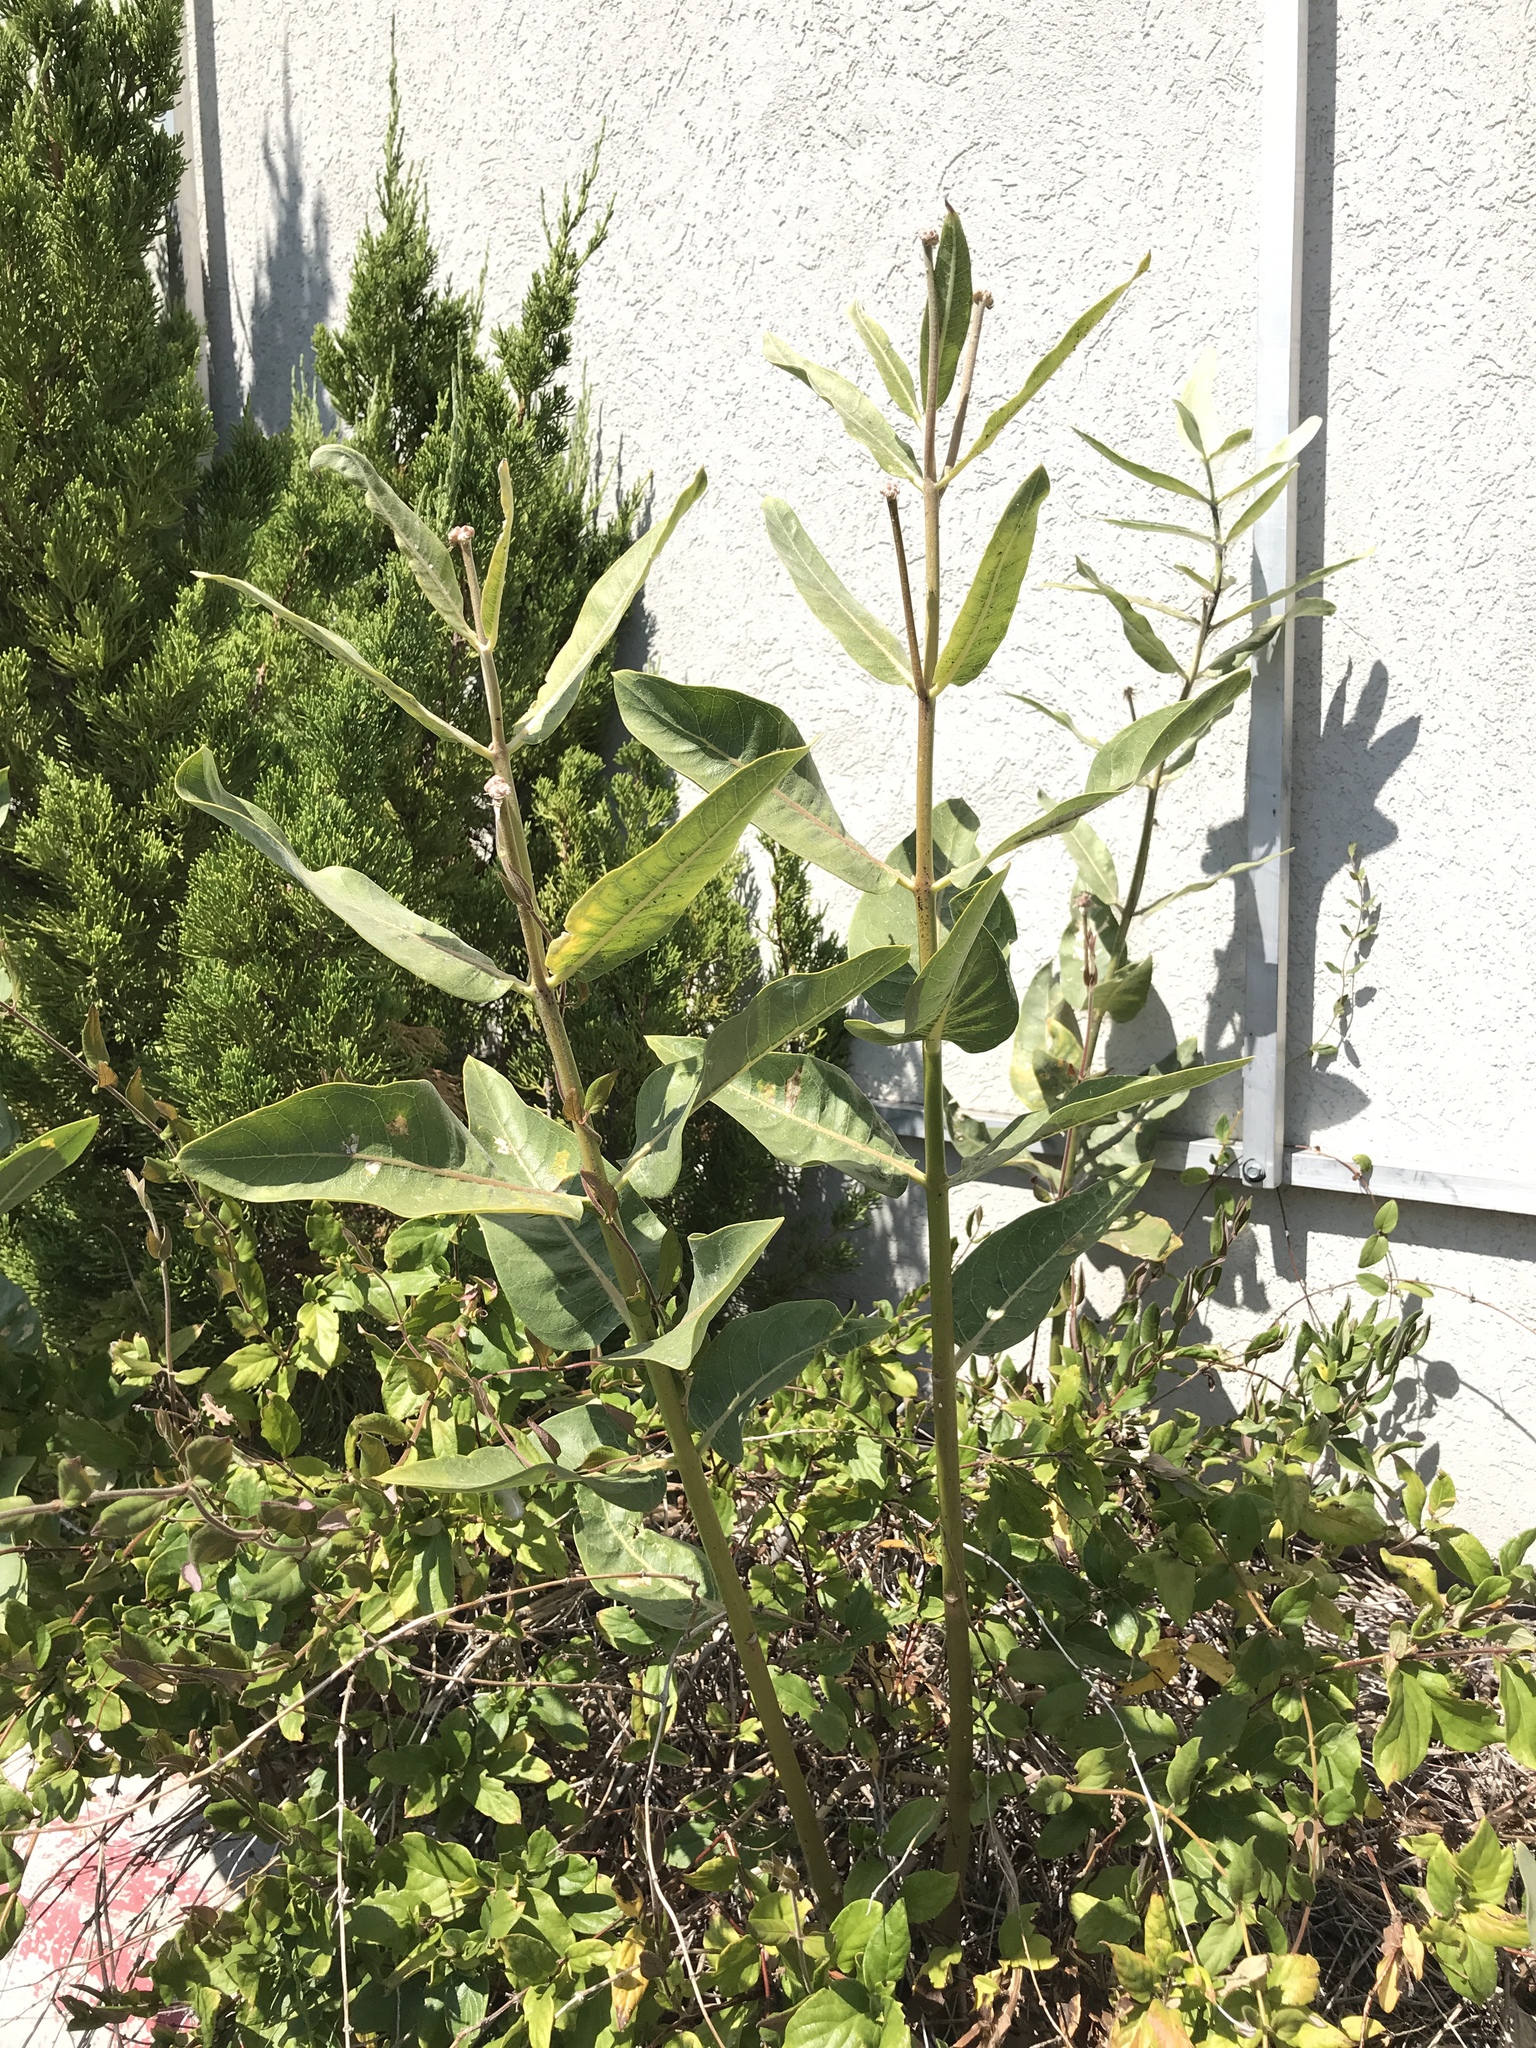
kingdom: Plantae
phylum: Tracheophyta
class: Magnoliopsida
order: Gentianales
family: Apocynaceae
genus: Asclepias
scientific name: Asclepias speciosa
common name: Showy milkweed
